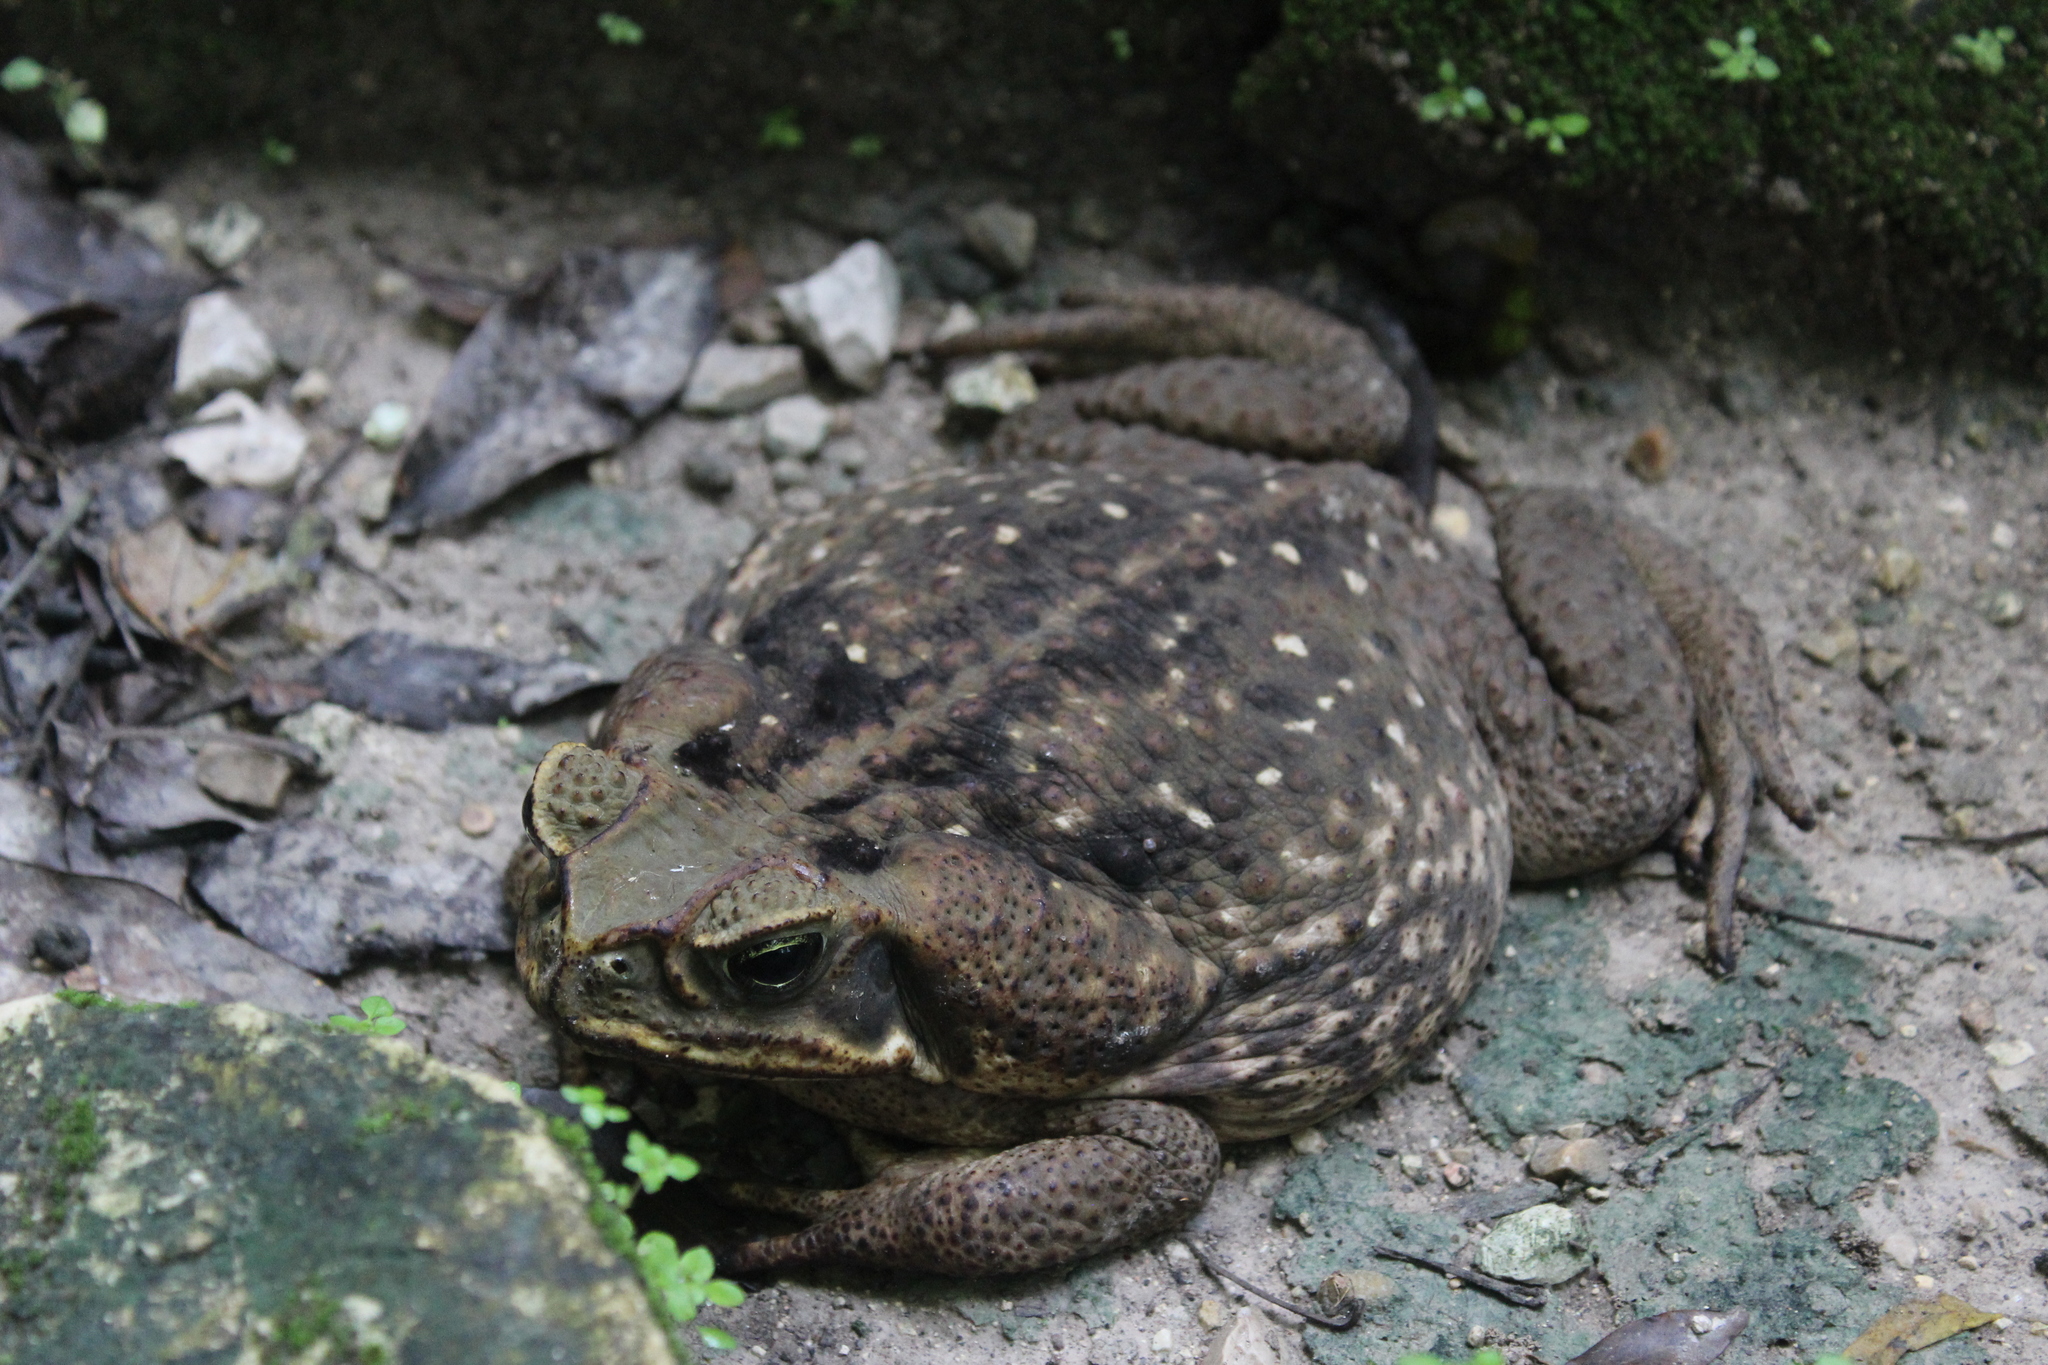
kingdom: Animalia
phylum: Chordata
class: Amphibia
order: Anura
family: Bufonidae
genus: Rhinella
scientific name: Rhinella horribilis
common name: Mesoamerican cane toad
